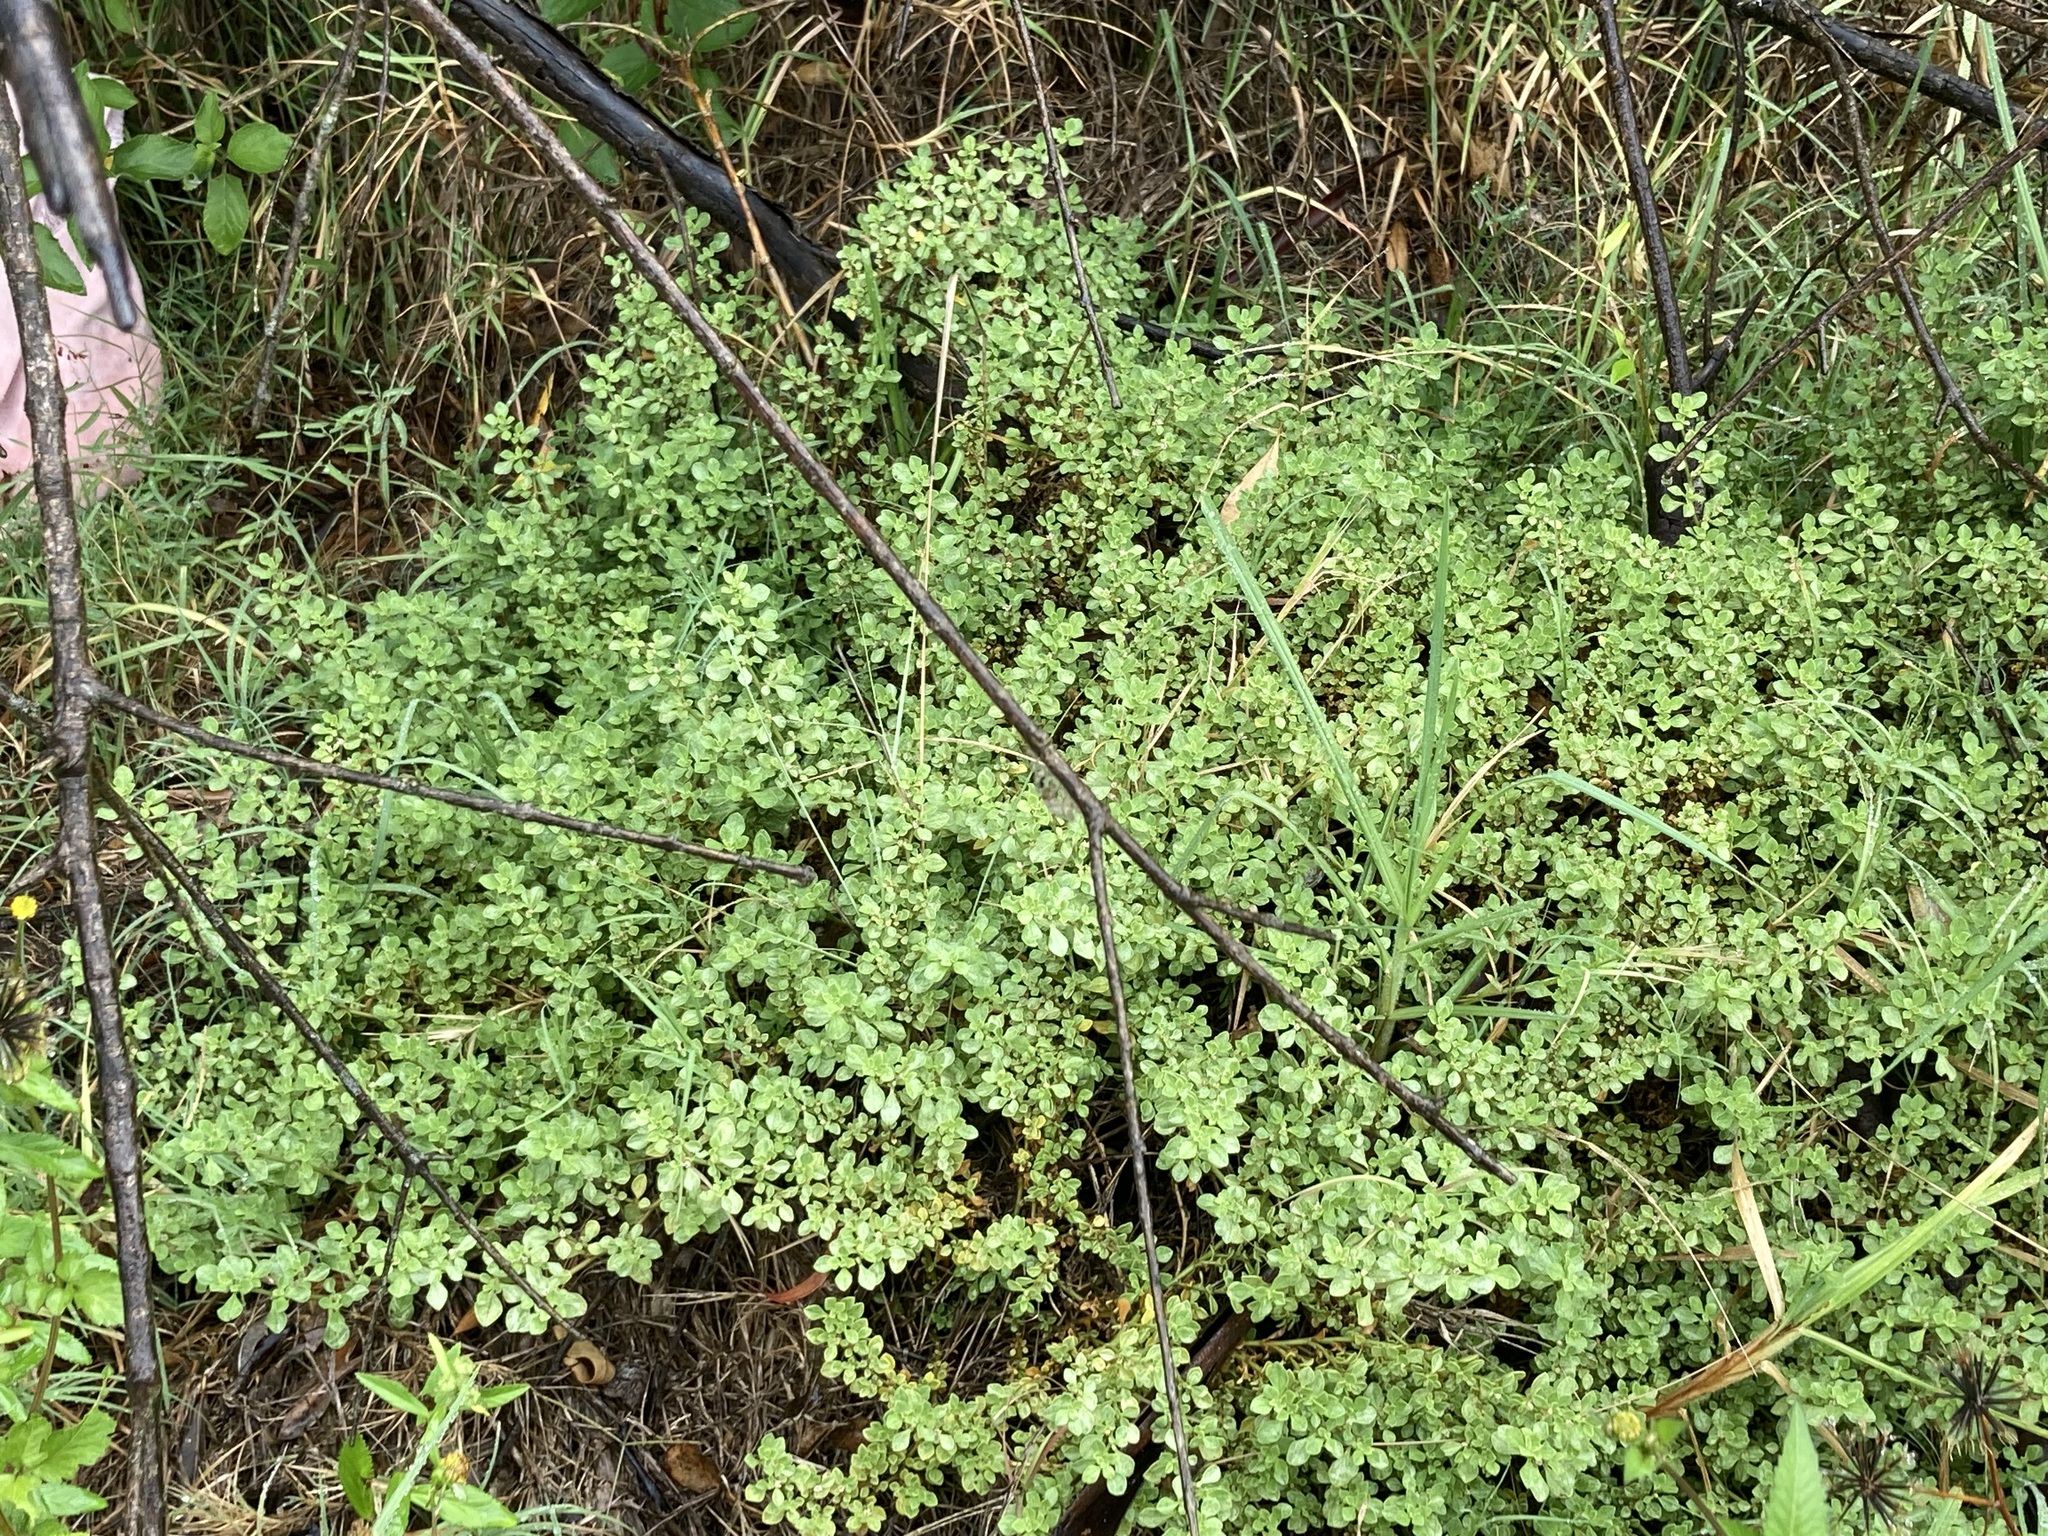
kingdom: Plantae
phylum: Tracheophyta
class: Magnoliopsida
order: Caryophyllales
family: Aizoaceae
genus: Aizoon
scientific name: Aizoon pubescens
